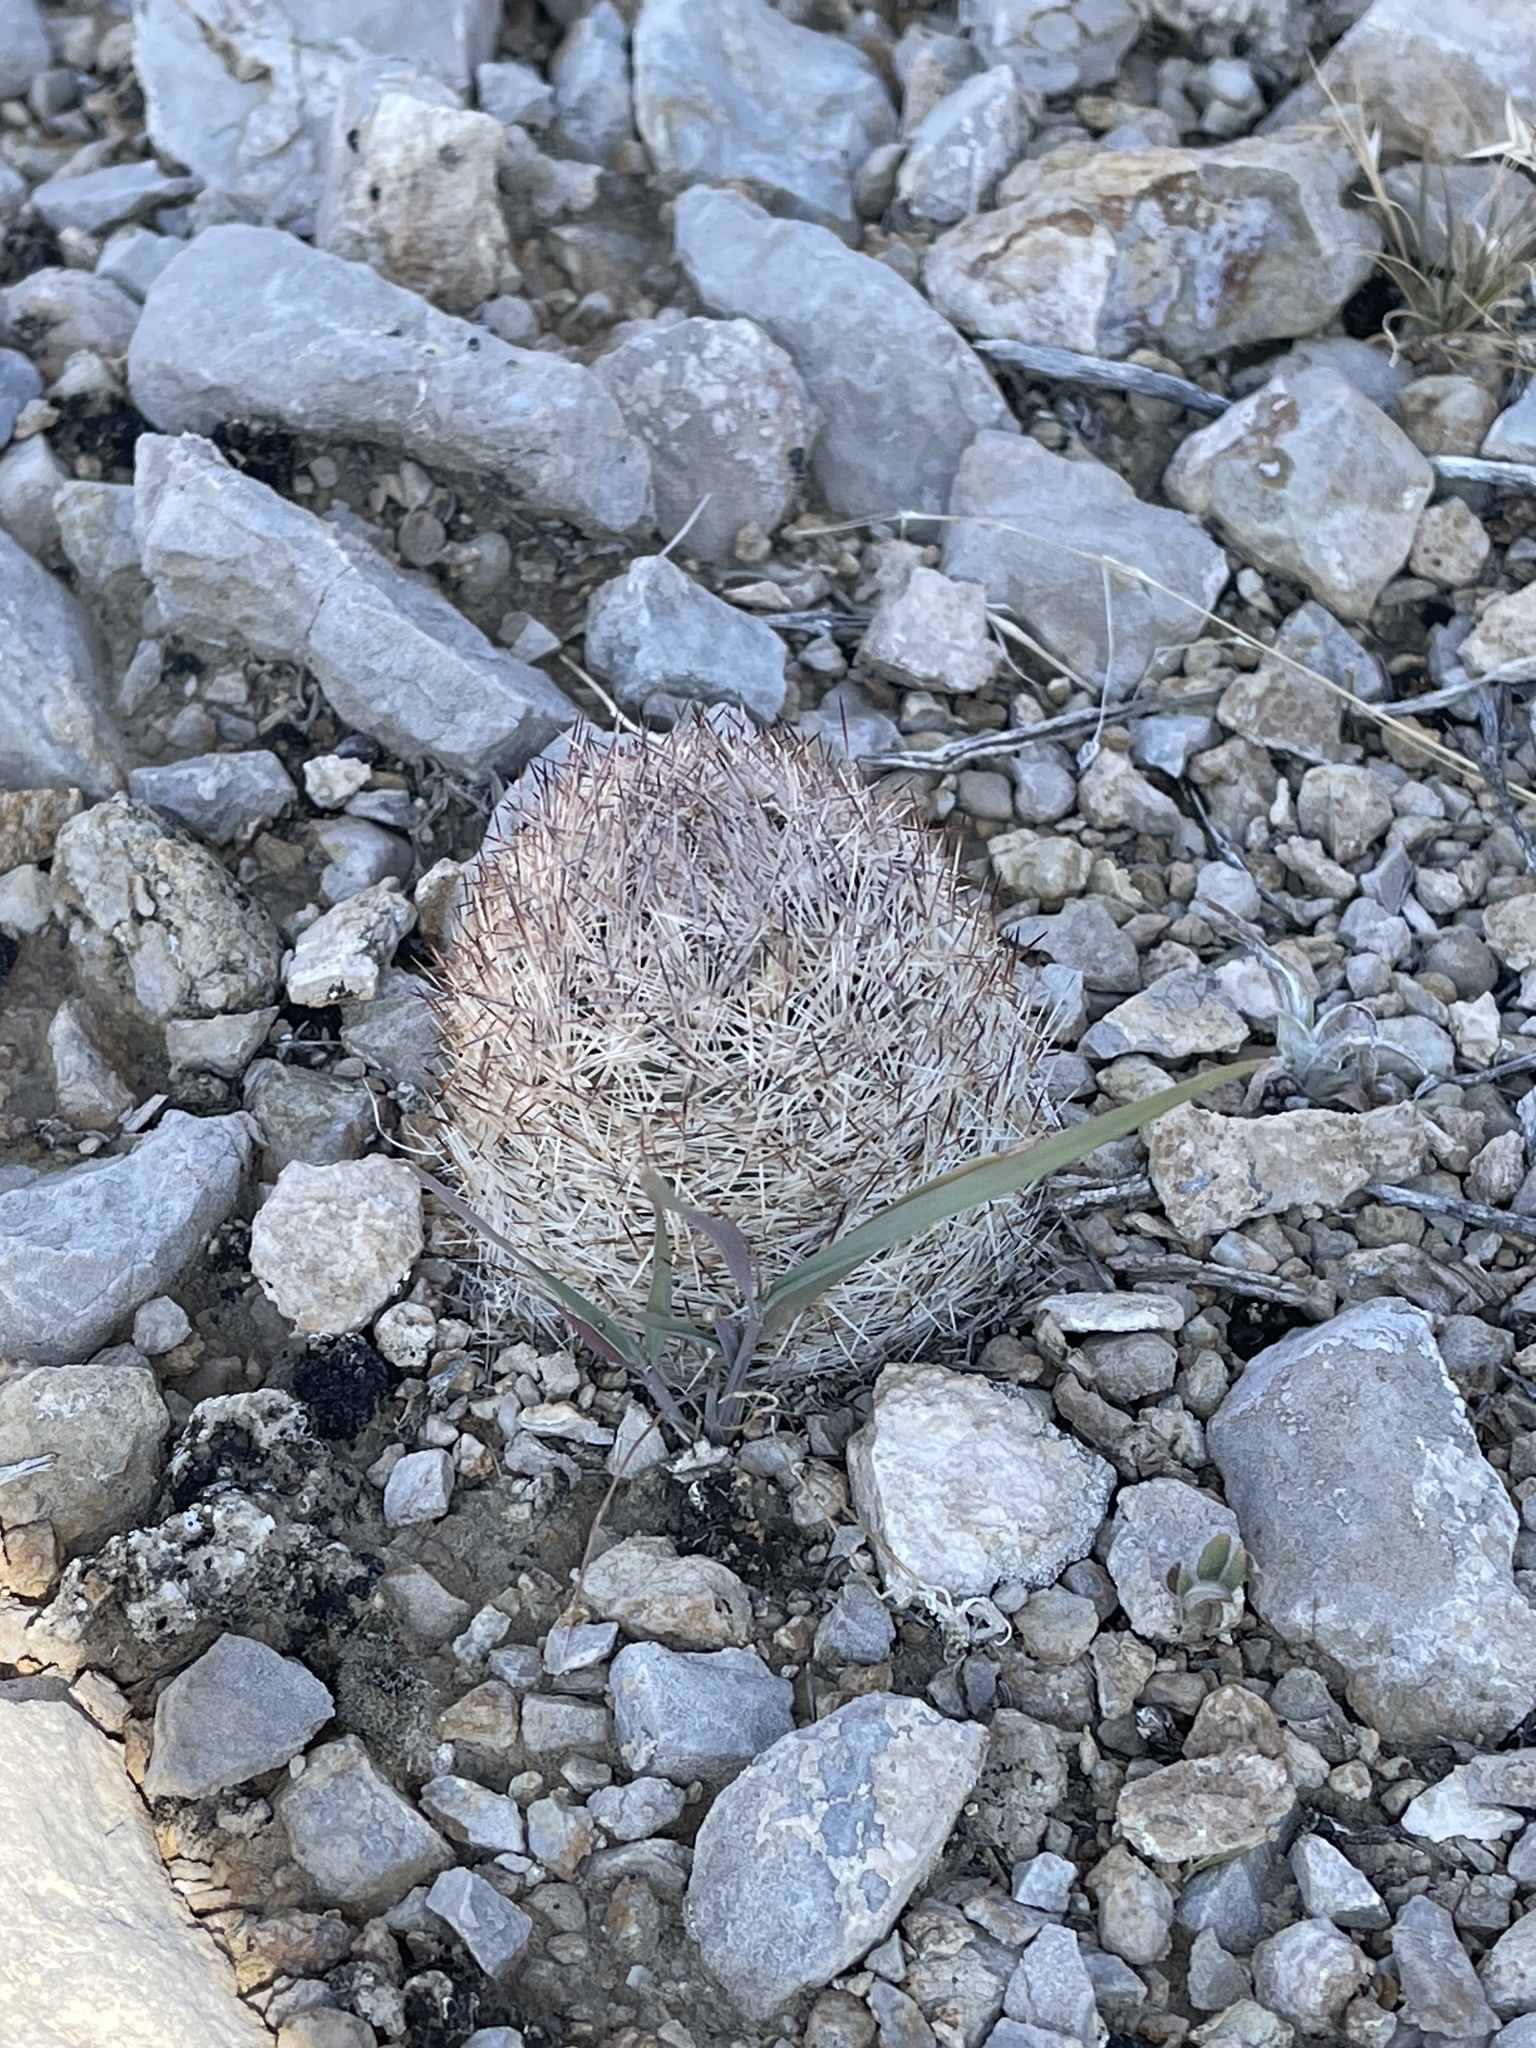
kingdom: Plantae
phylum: Tracheophyta
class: Magnoliopsida
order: Caryophyllales
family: Cactaceae
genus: Pelecyphora
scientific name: Pelecyphora dasyacantha
